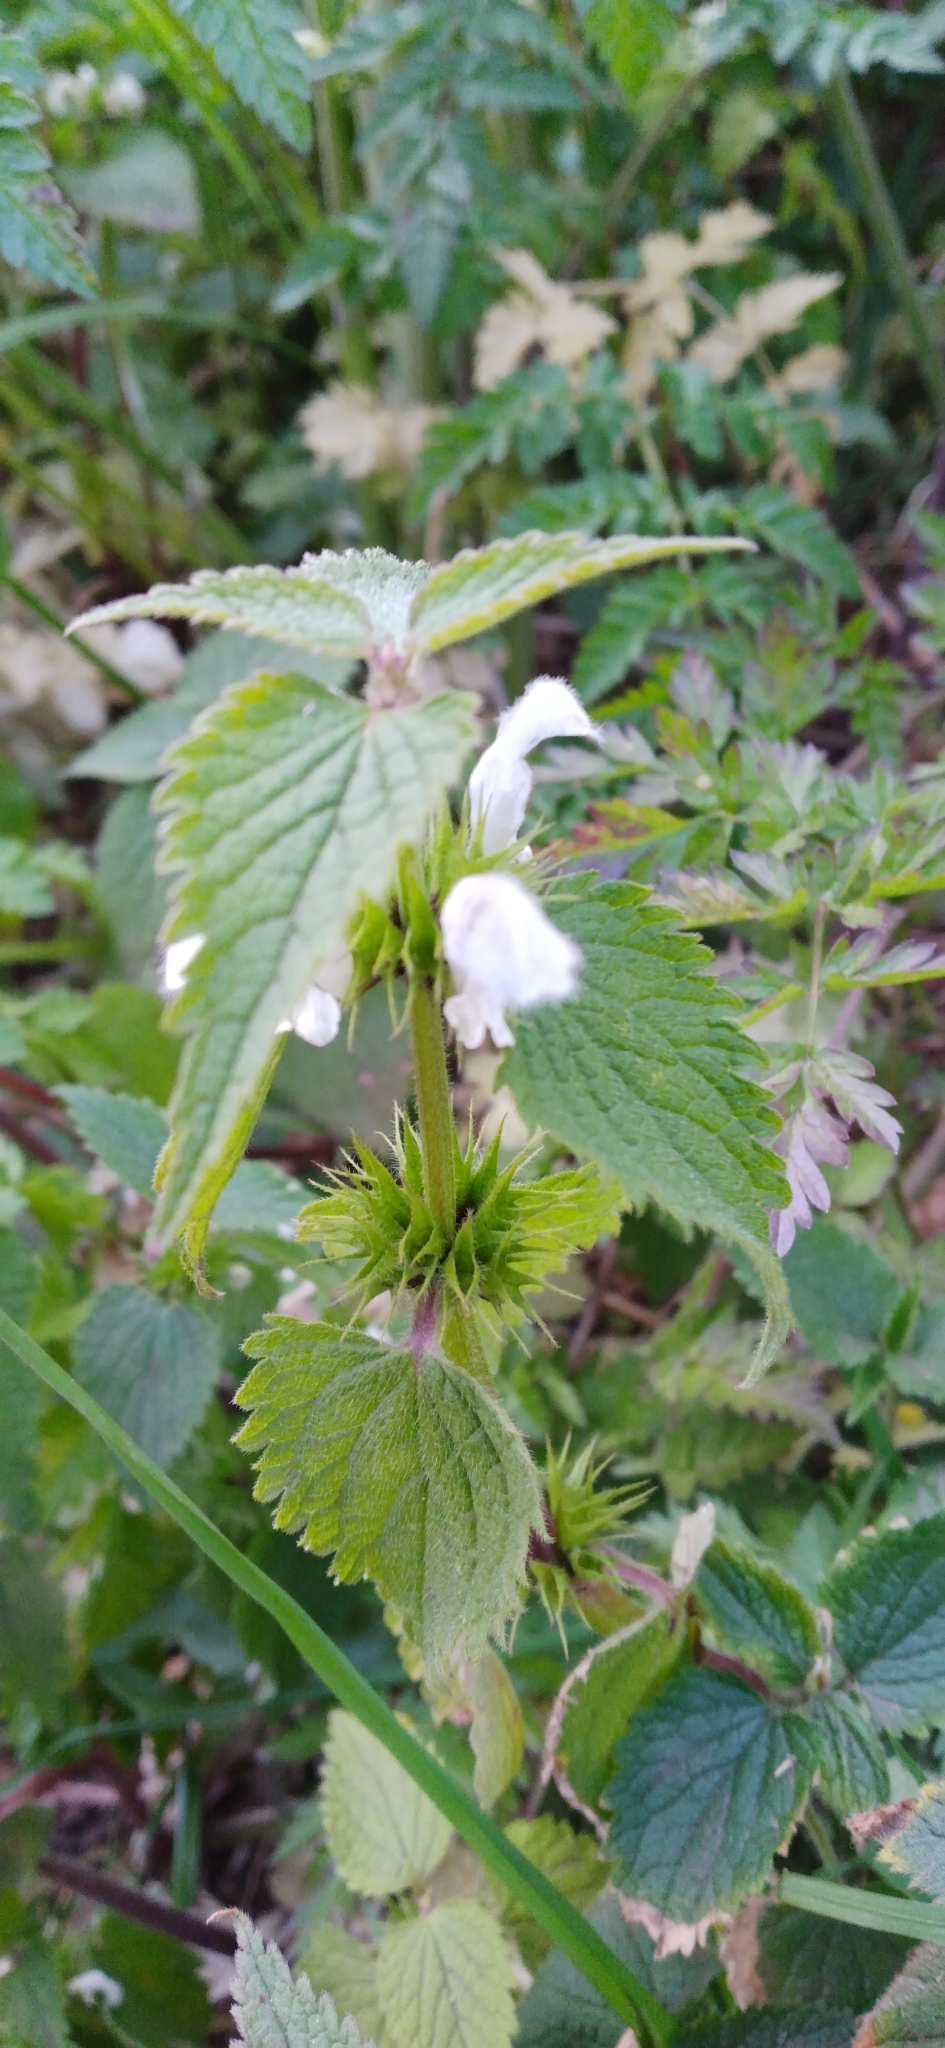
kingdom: Plantae
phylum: Tracheophyta
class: Magnoliopsida
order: Lamiales
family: Lamiaceae
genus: Lamium
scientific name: Lamium album
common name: White dead-nettle
